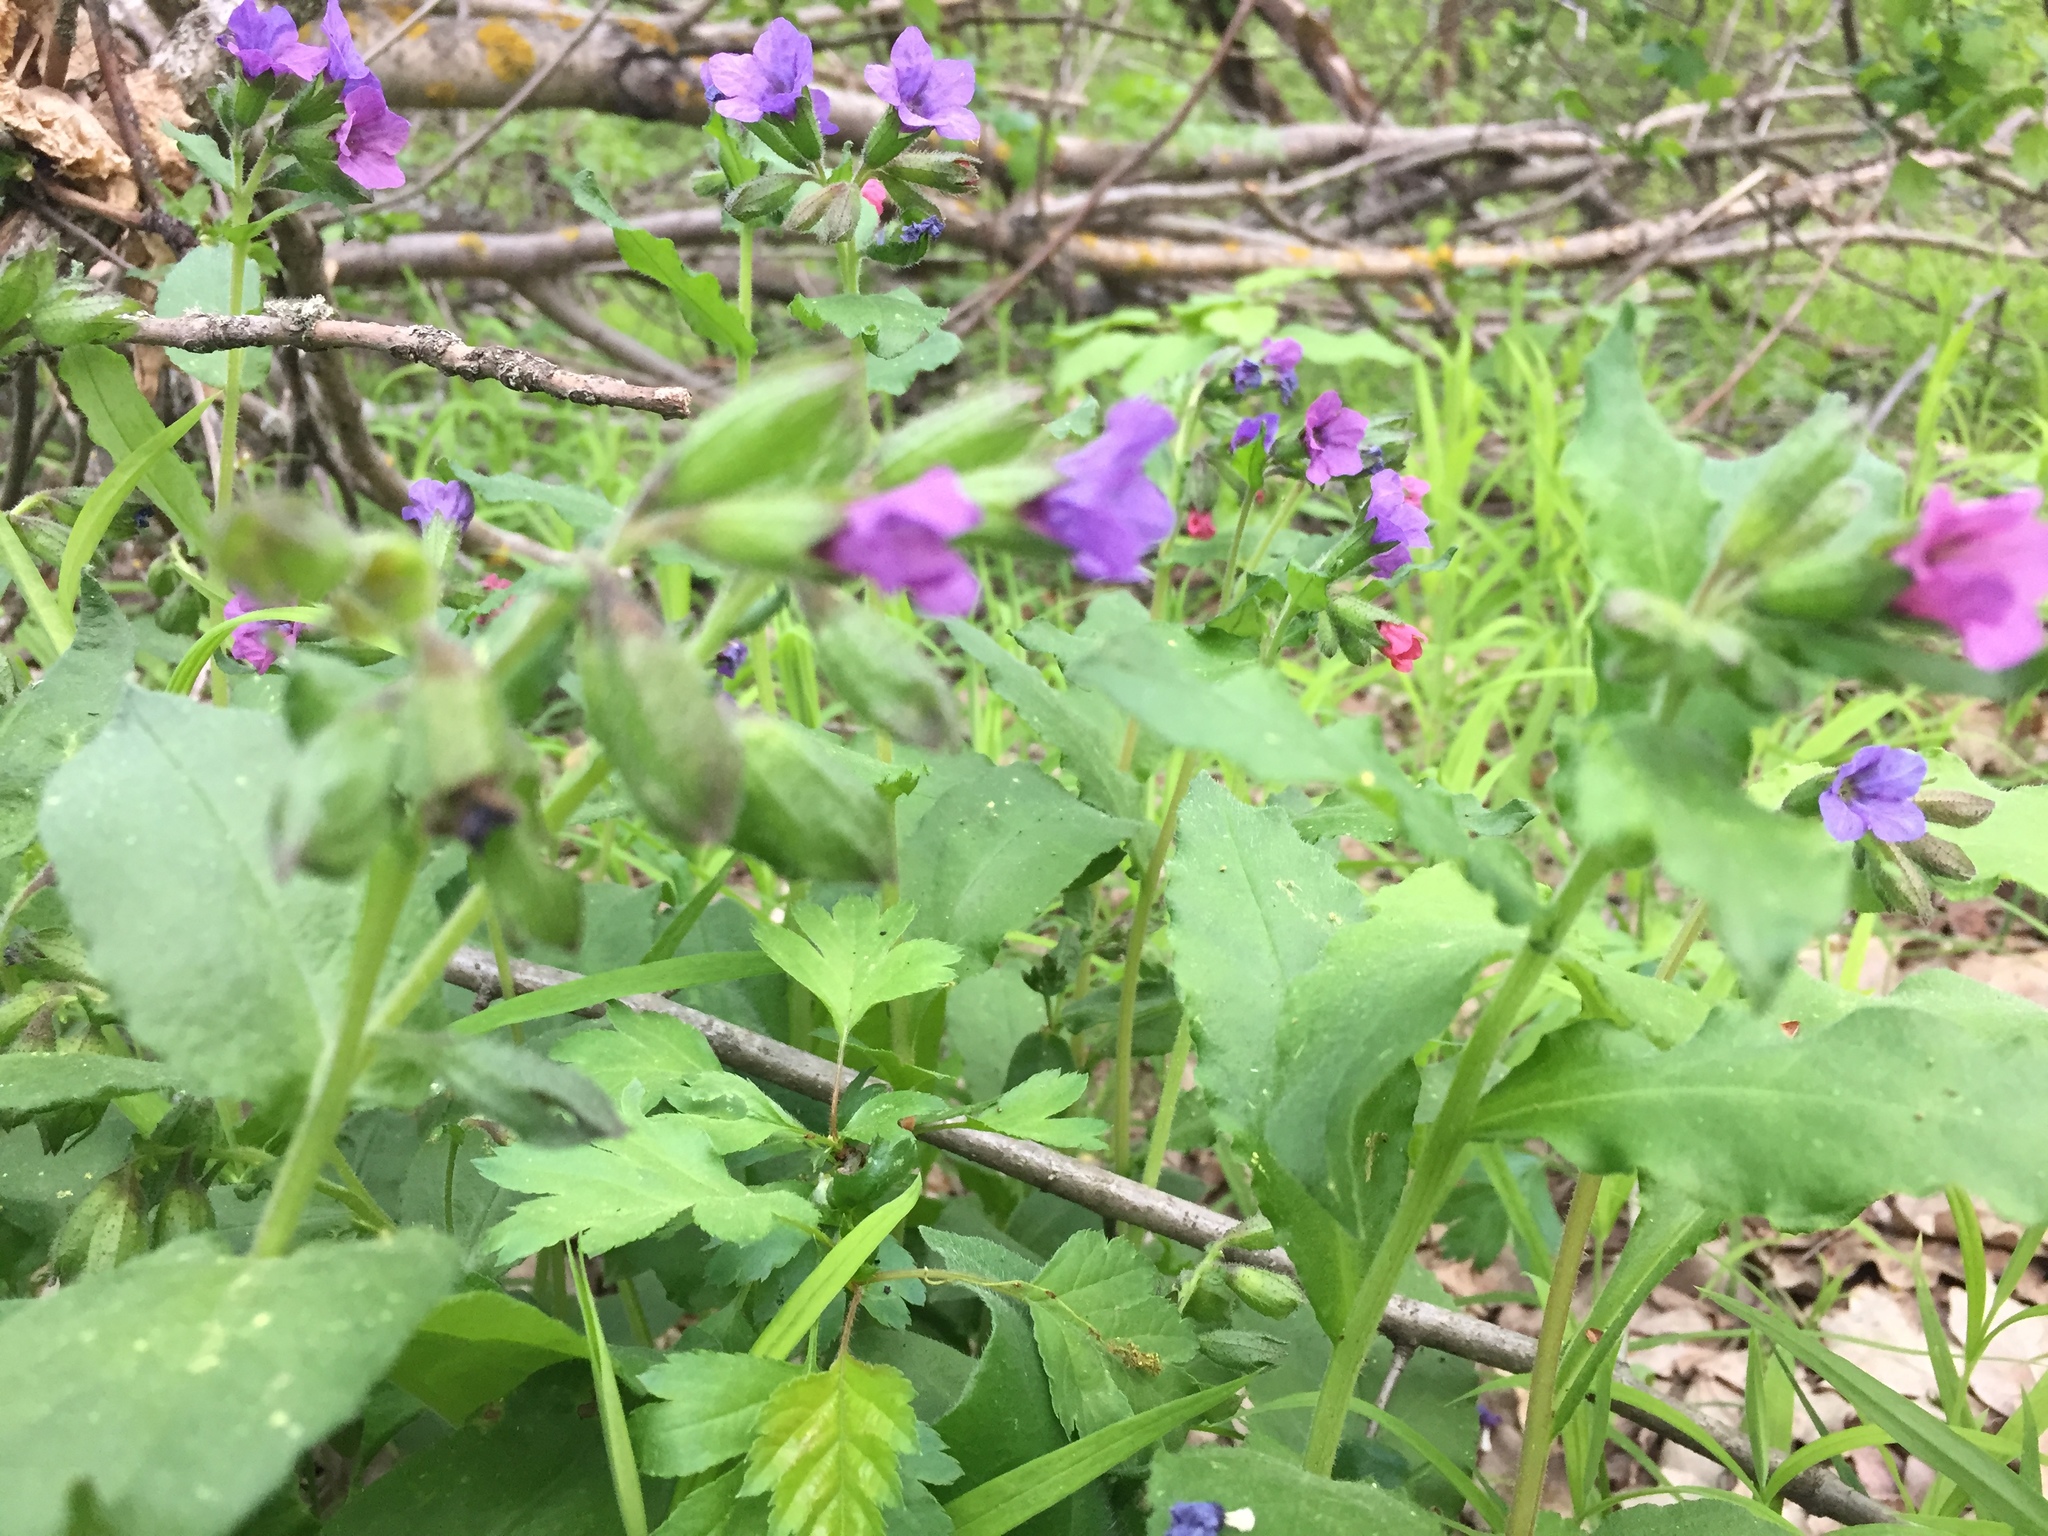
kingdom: Plantae
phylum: Tracheophyta
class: Magnoliopsida
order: Boraginales
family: Boraginaceae
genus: Pulmonaria
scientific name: Pulmonaria obscura
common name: Suffolk lungwort
